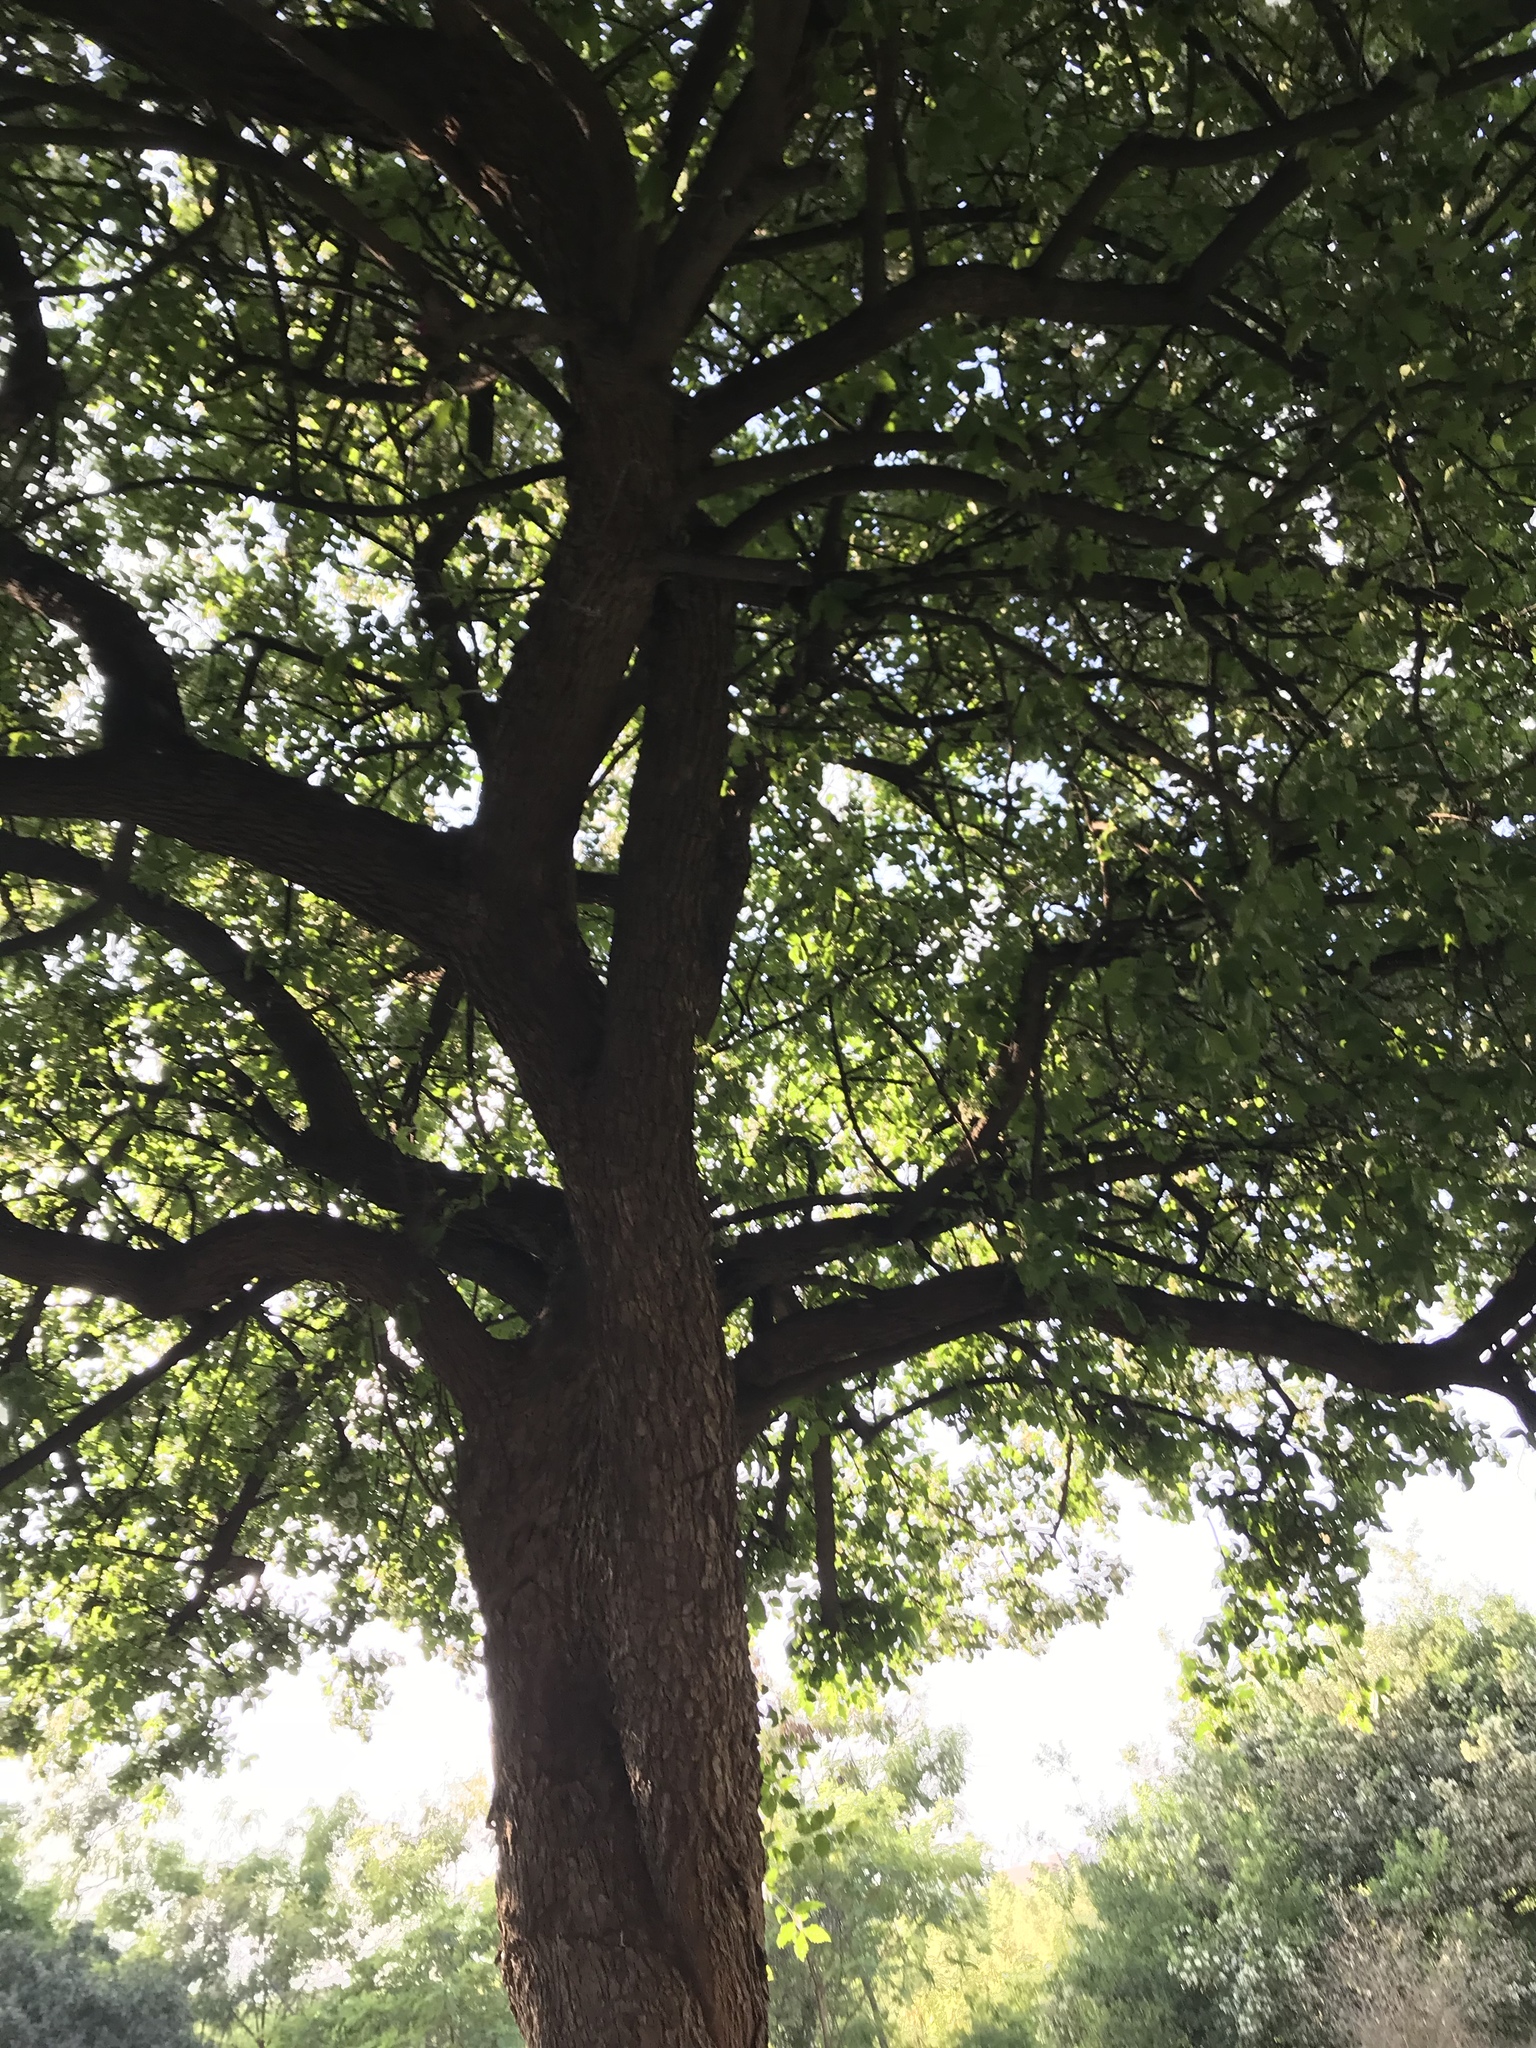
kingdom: Plantae
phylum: Tracheophyta
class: Magnoliopsida
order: Boraginales
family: Ehretiaceae
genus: Ehretia
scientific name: Ehretia anacua
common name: Sugarberry
